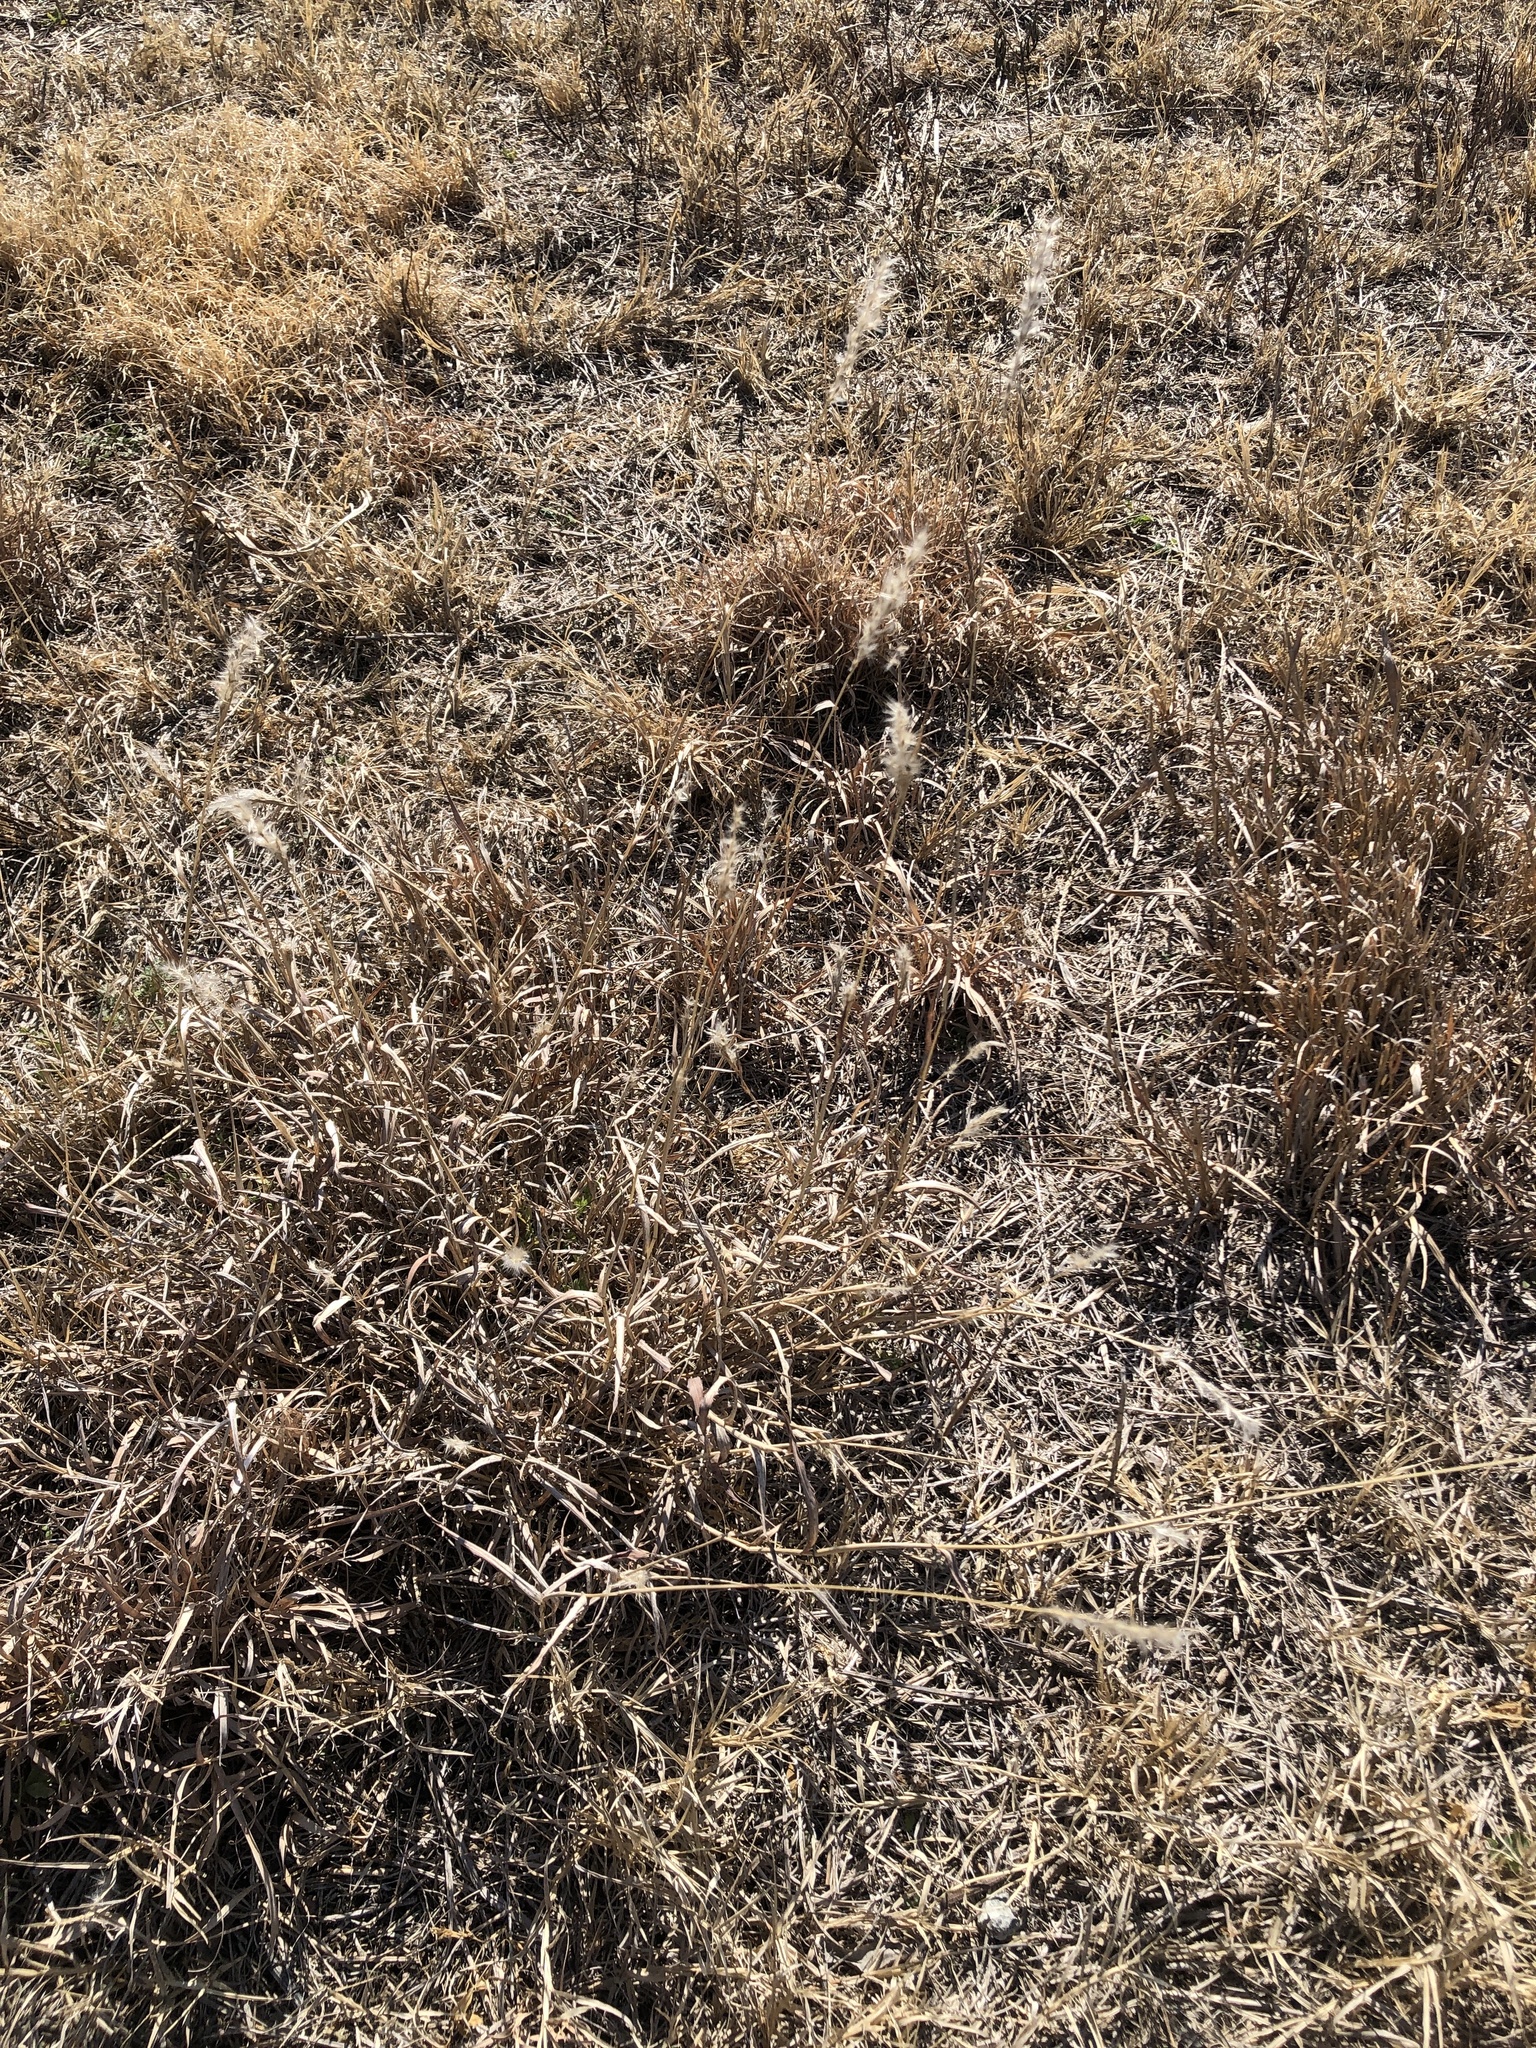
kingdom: Plantae
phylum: Tracheophyta
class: Liliopsida
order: Poales
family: Poaceae
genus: Bothriochloa
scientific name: Bothriochloa torreyana
